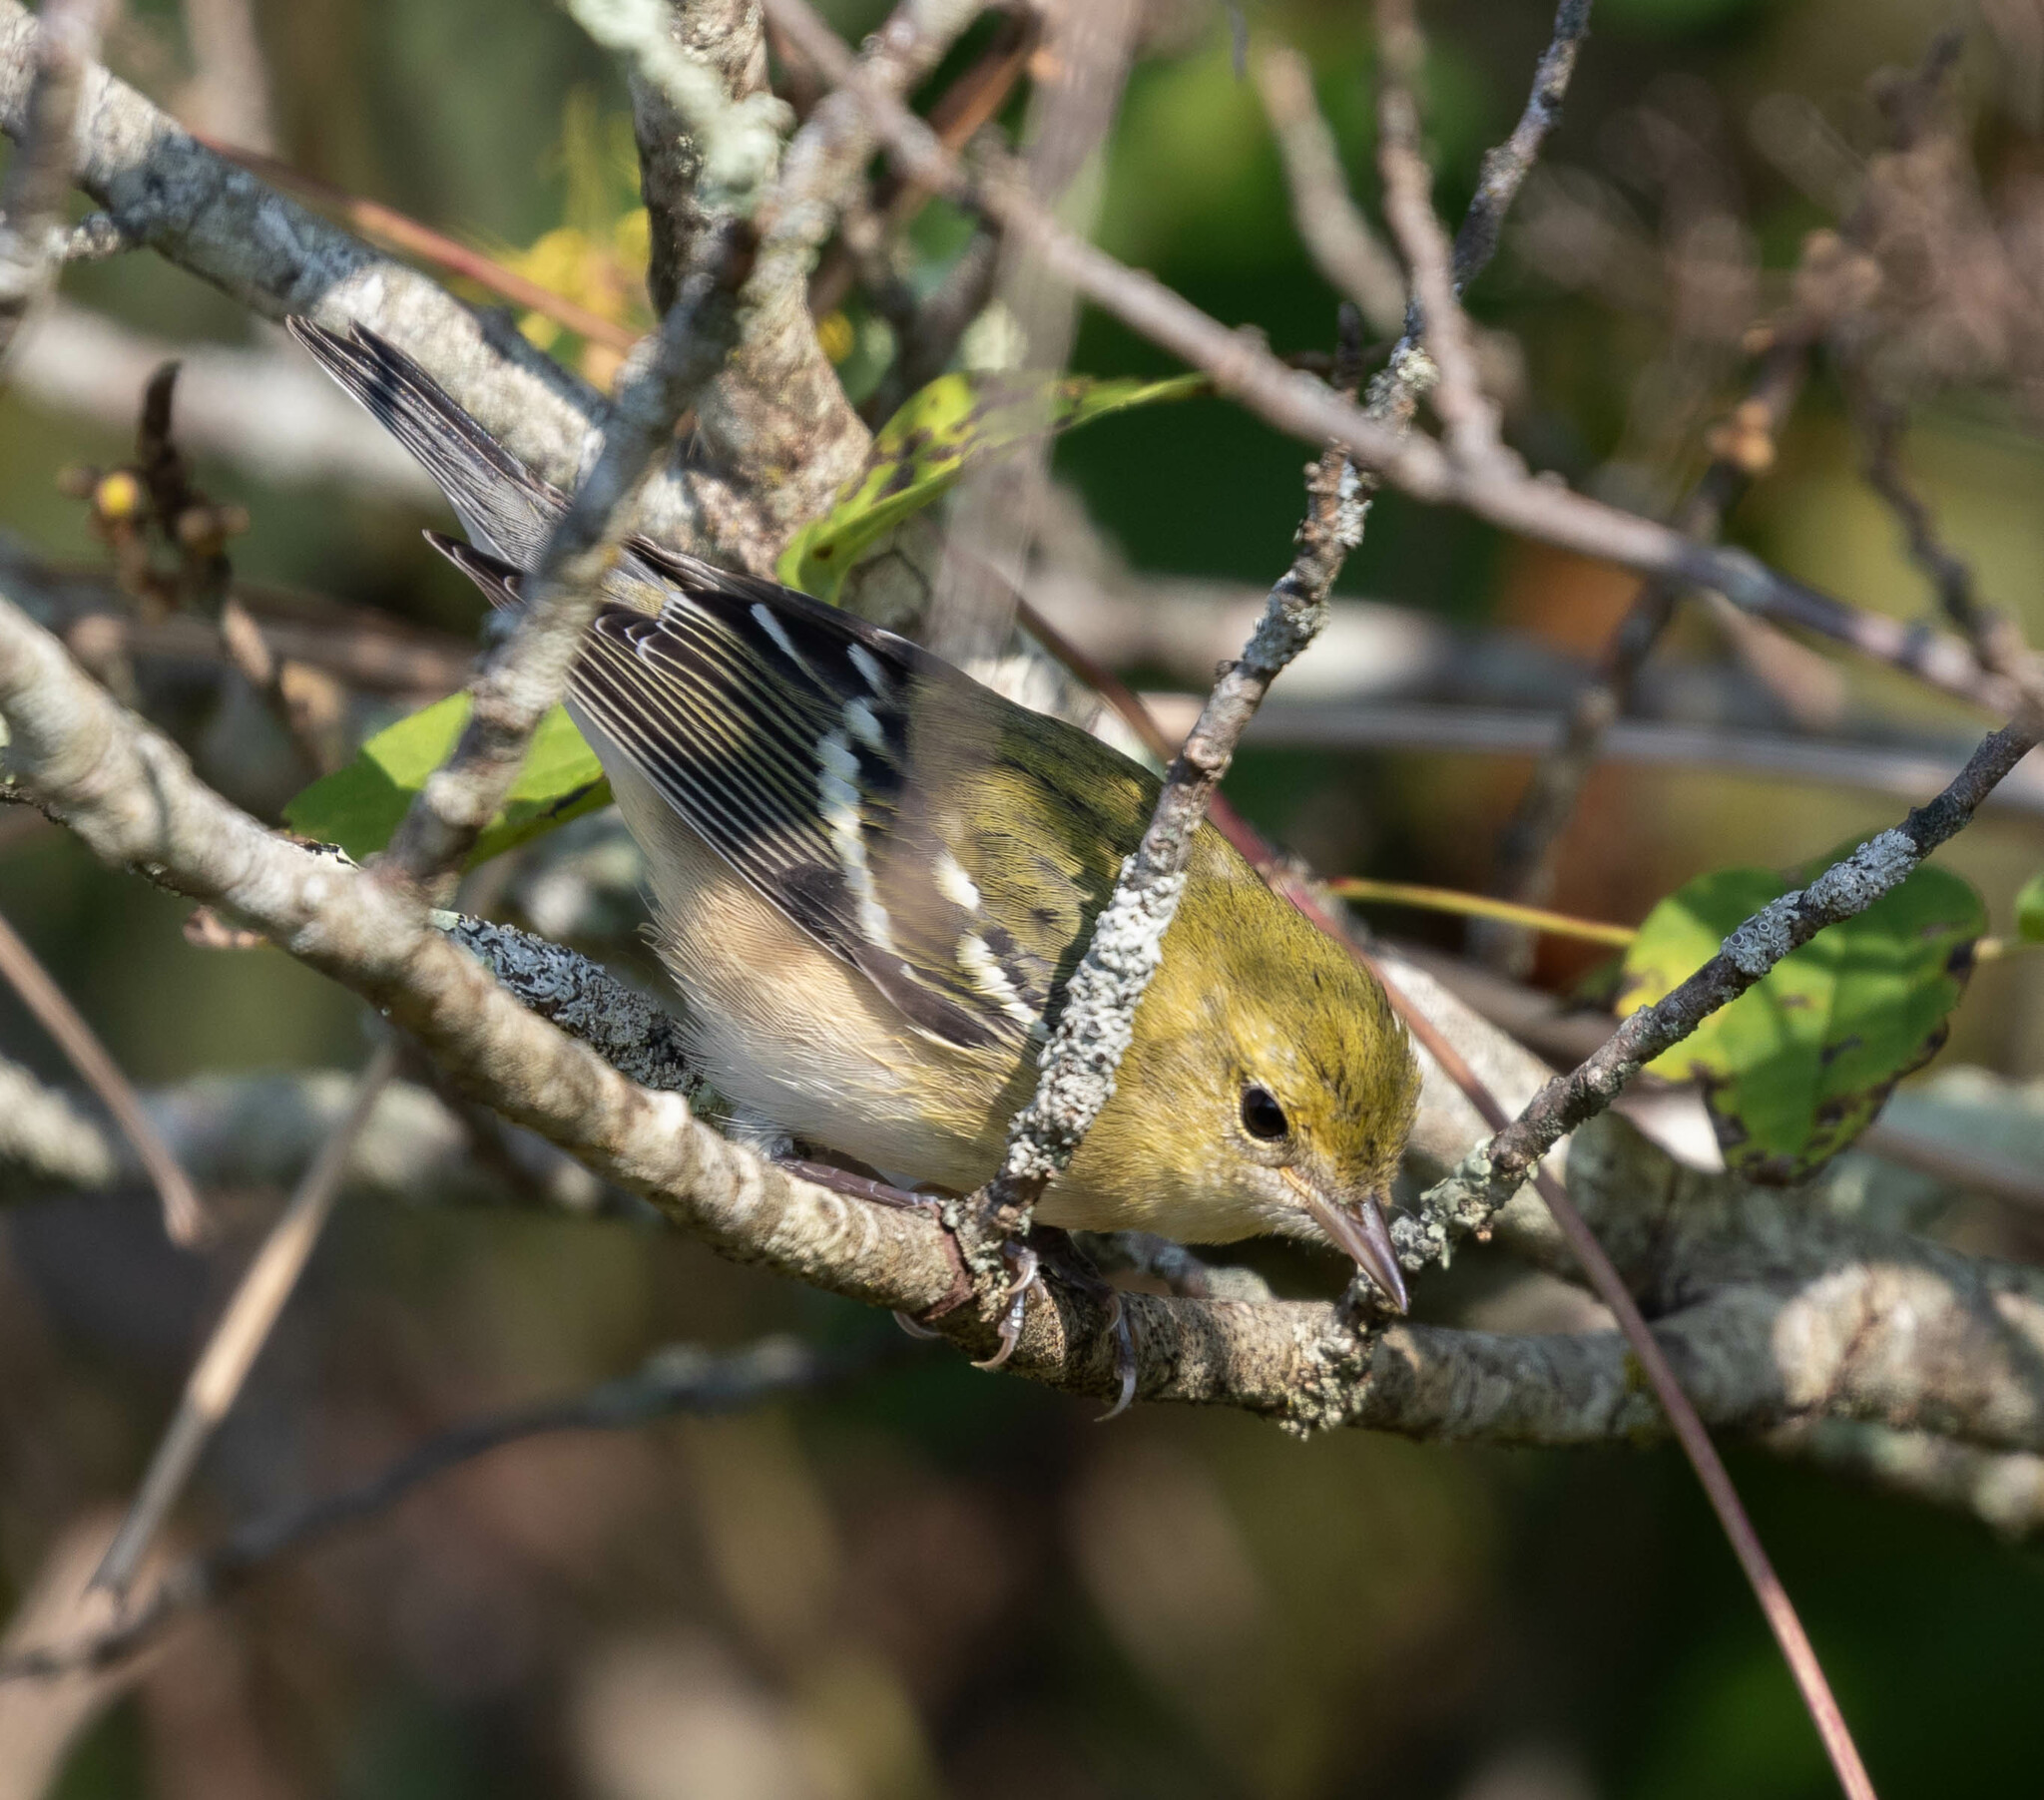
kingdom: Animalia
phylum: Chordata
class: Aves
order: Passeriformes
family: Parulidae
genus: Setophaga
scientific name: Setophaga castanea
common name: Bay-breasted warbler
